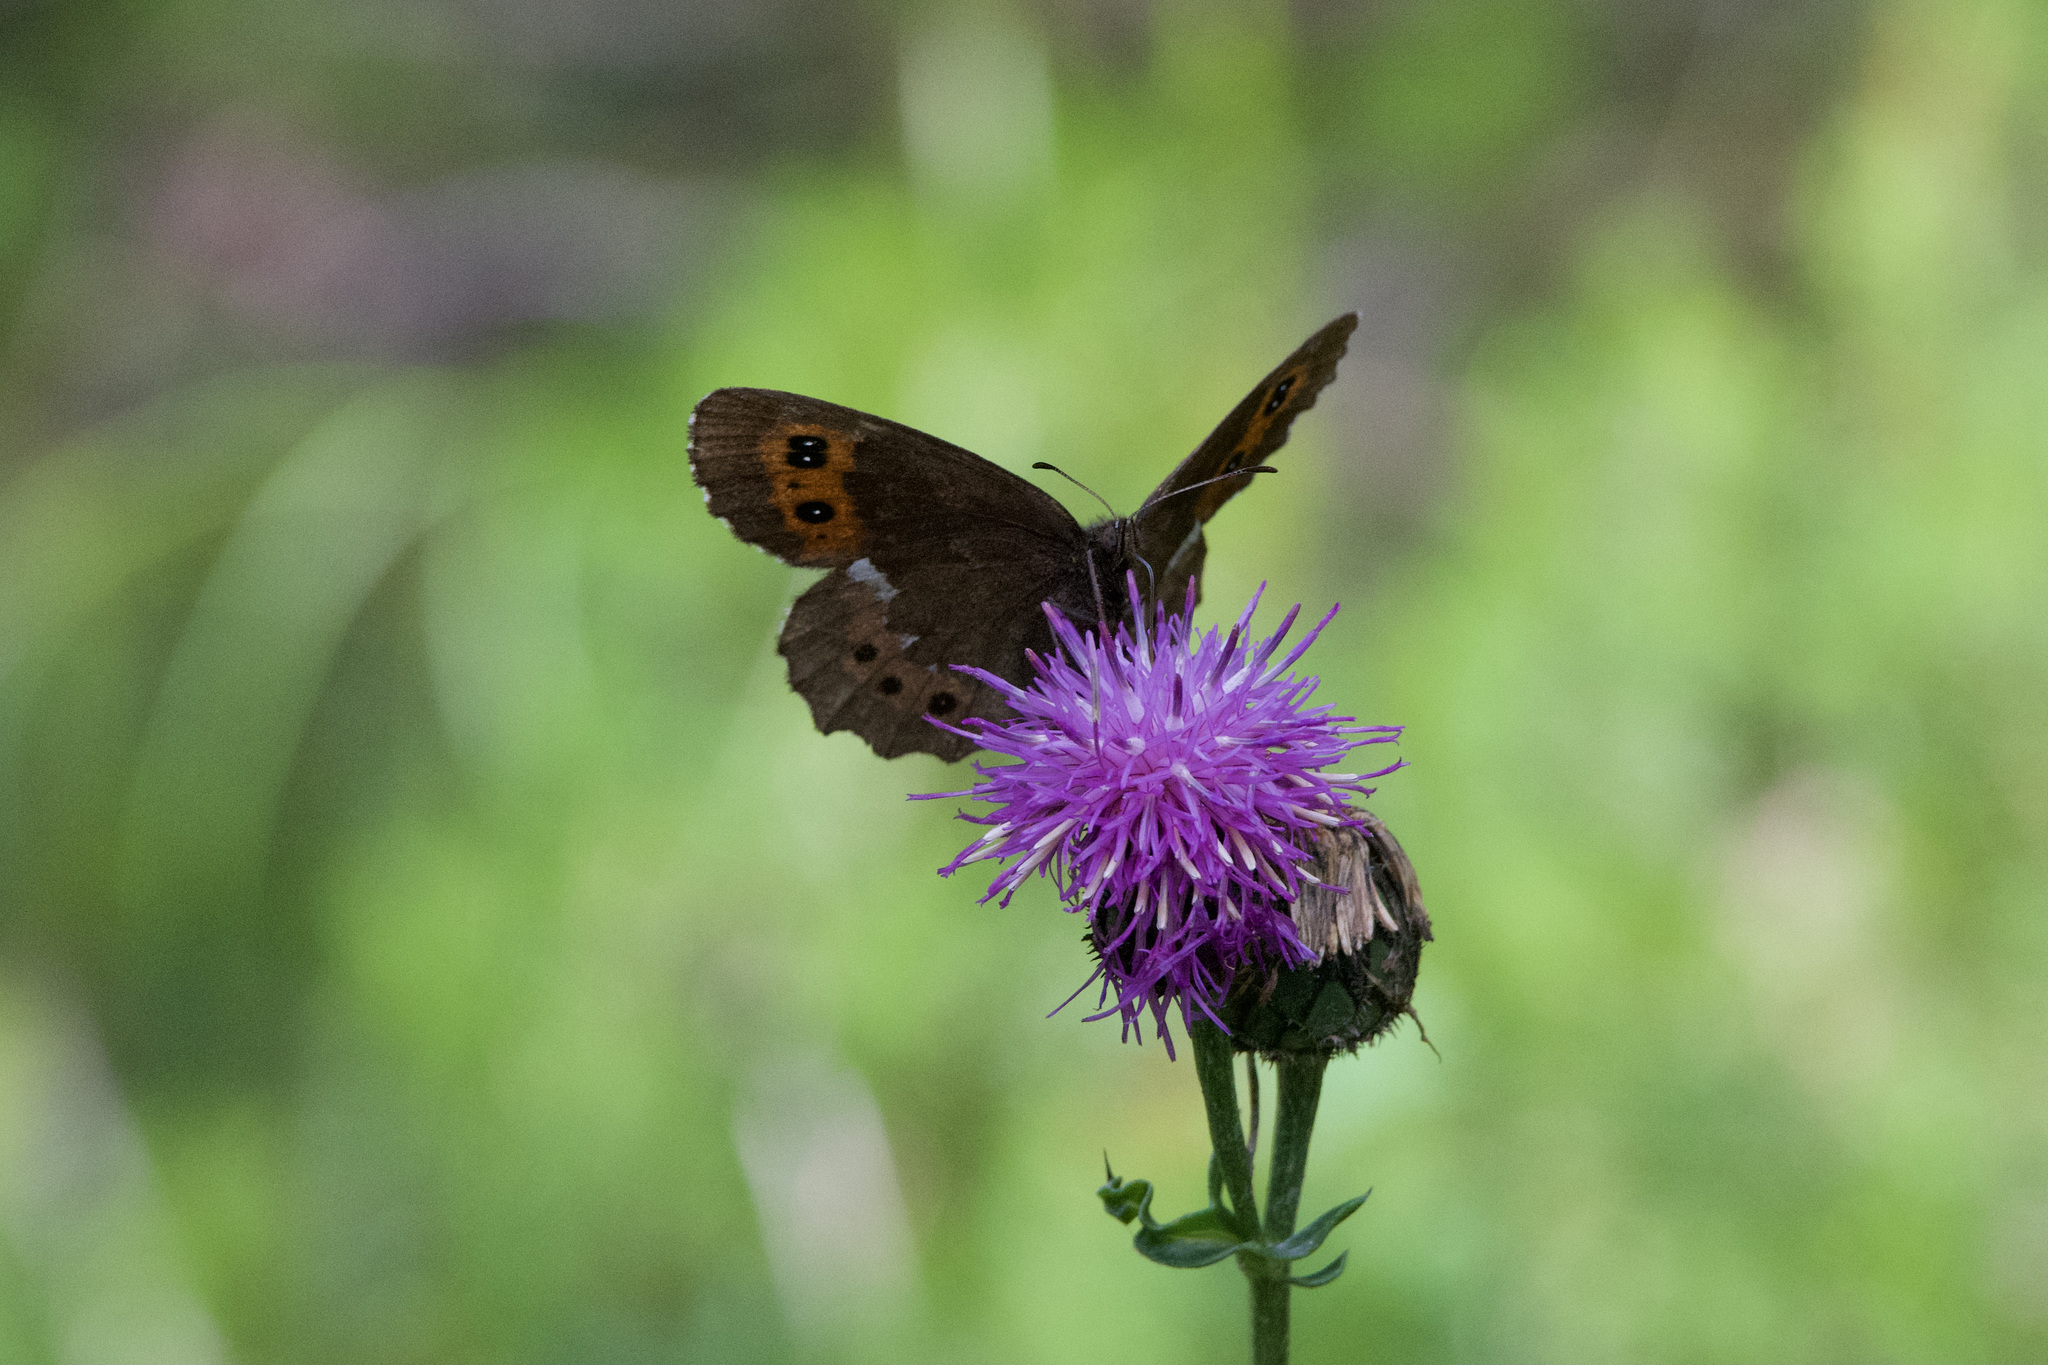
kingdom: Animalia
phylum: Arthropoda
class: Insecta
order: Lepidoptera
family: Nymphalidae
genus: Erebia
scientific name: Erebia ligea
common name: Arran brown
